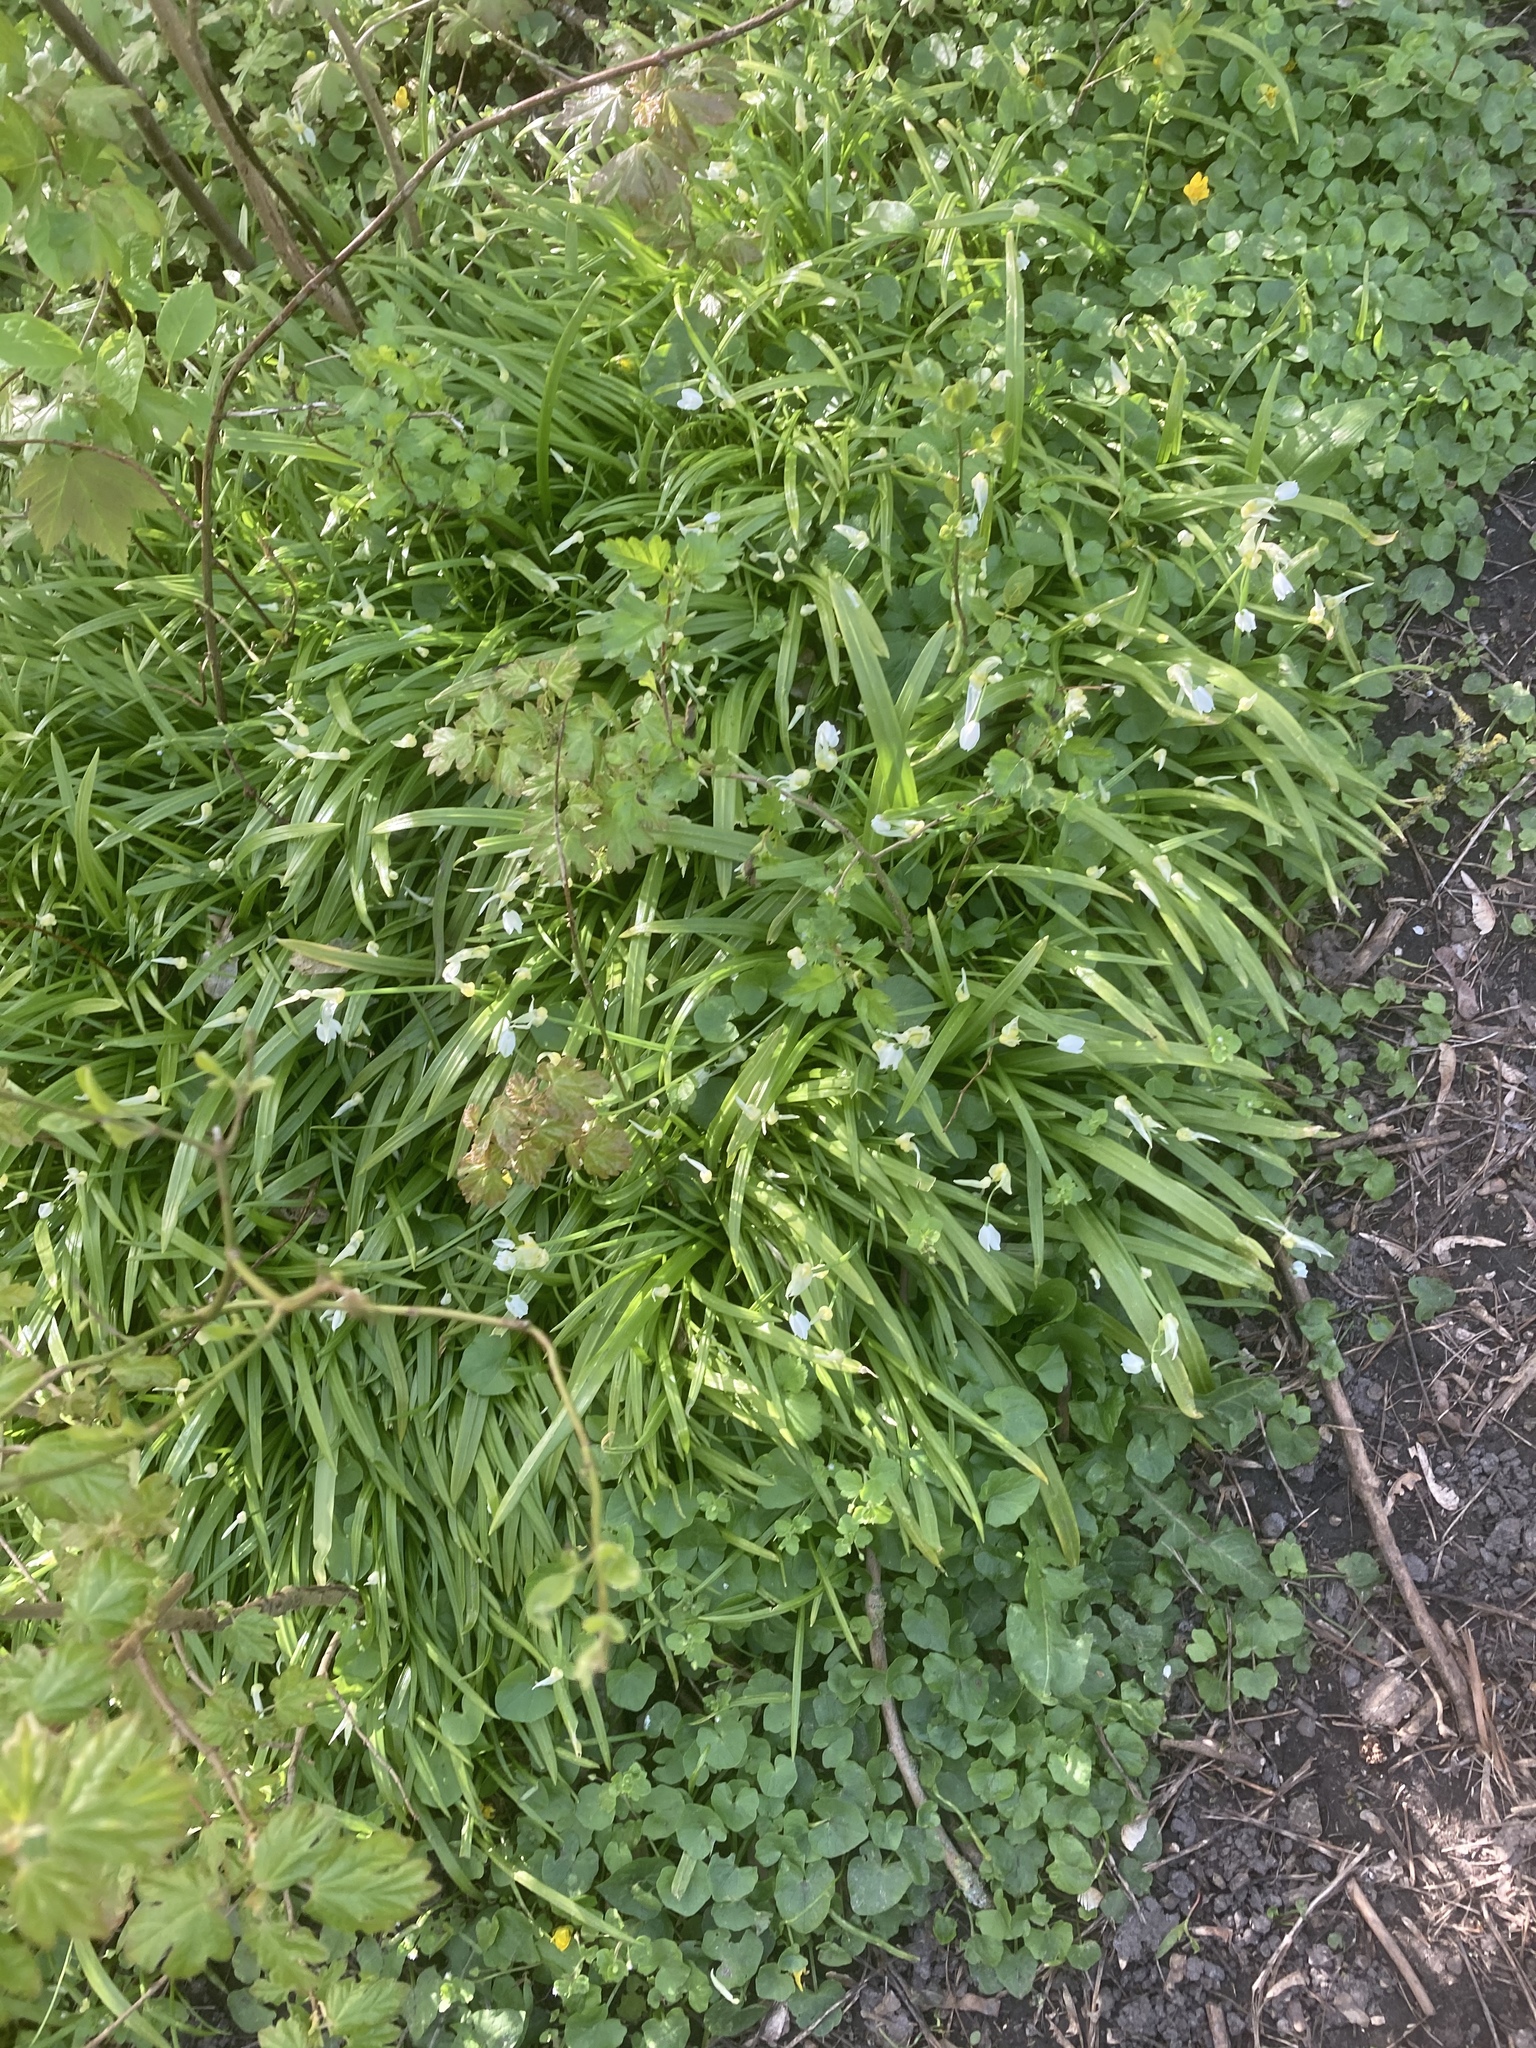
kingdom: Plantae
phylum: Tracheophyta
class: Liliopsida
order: Asparagales
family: Amaryllidaceae
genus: Allium
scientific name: Allium paradoxum
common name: Few-flowered garlic
